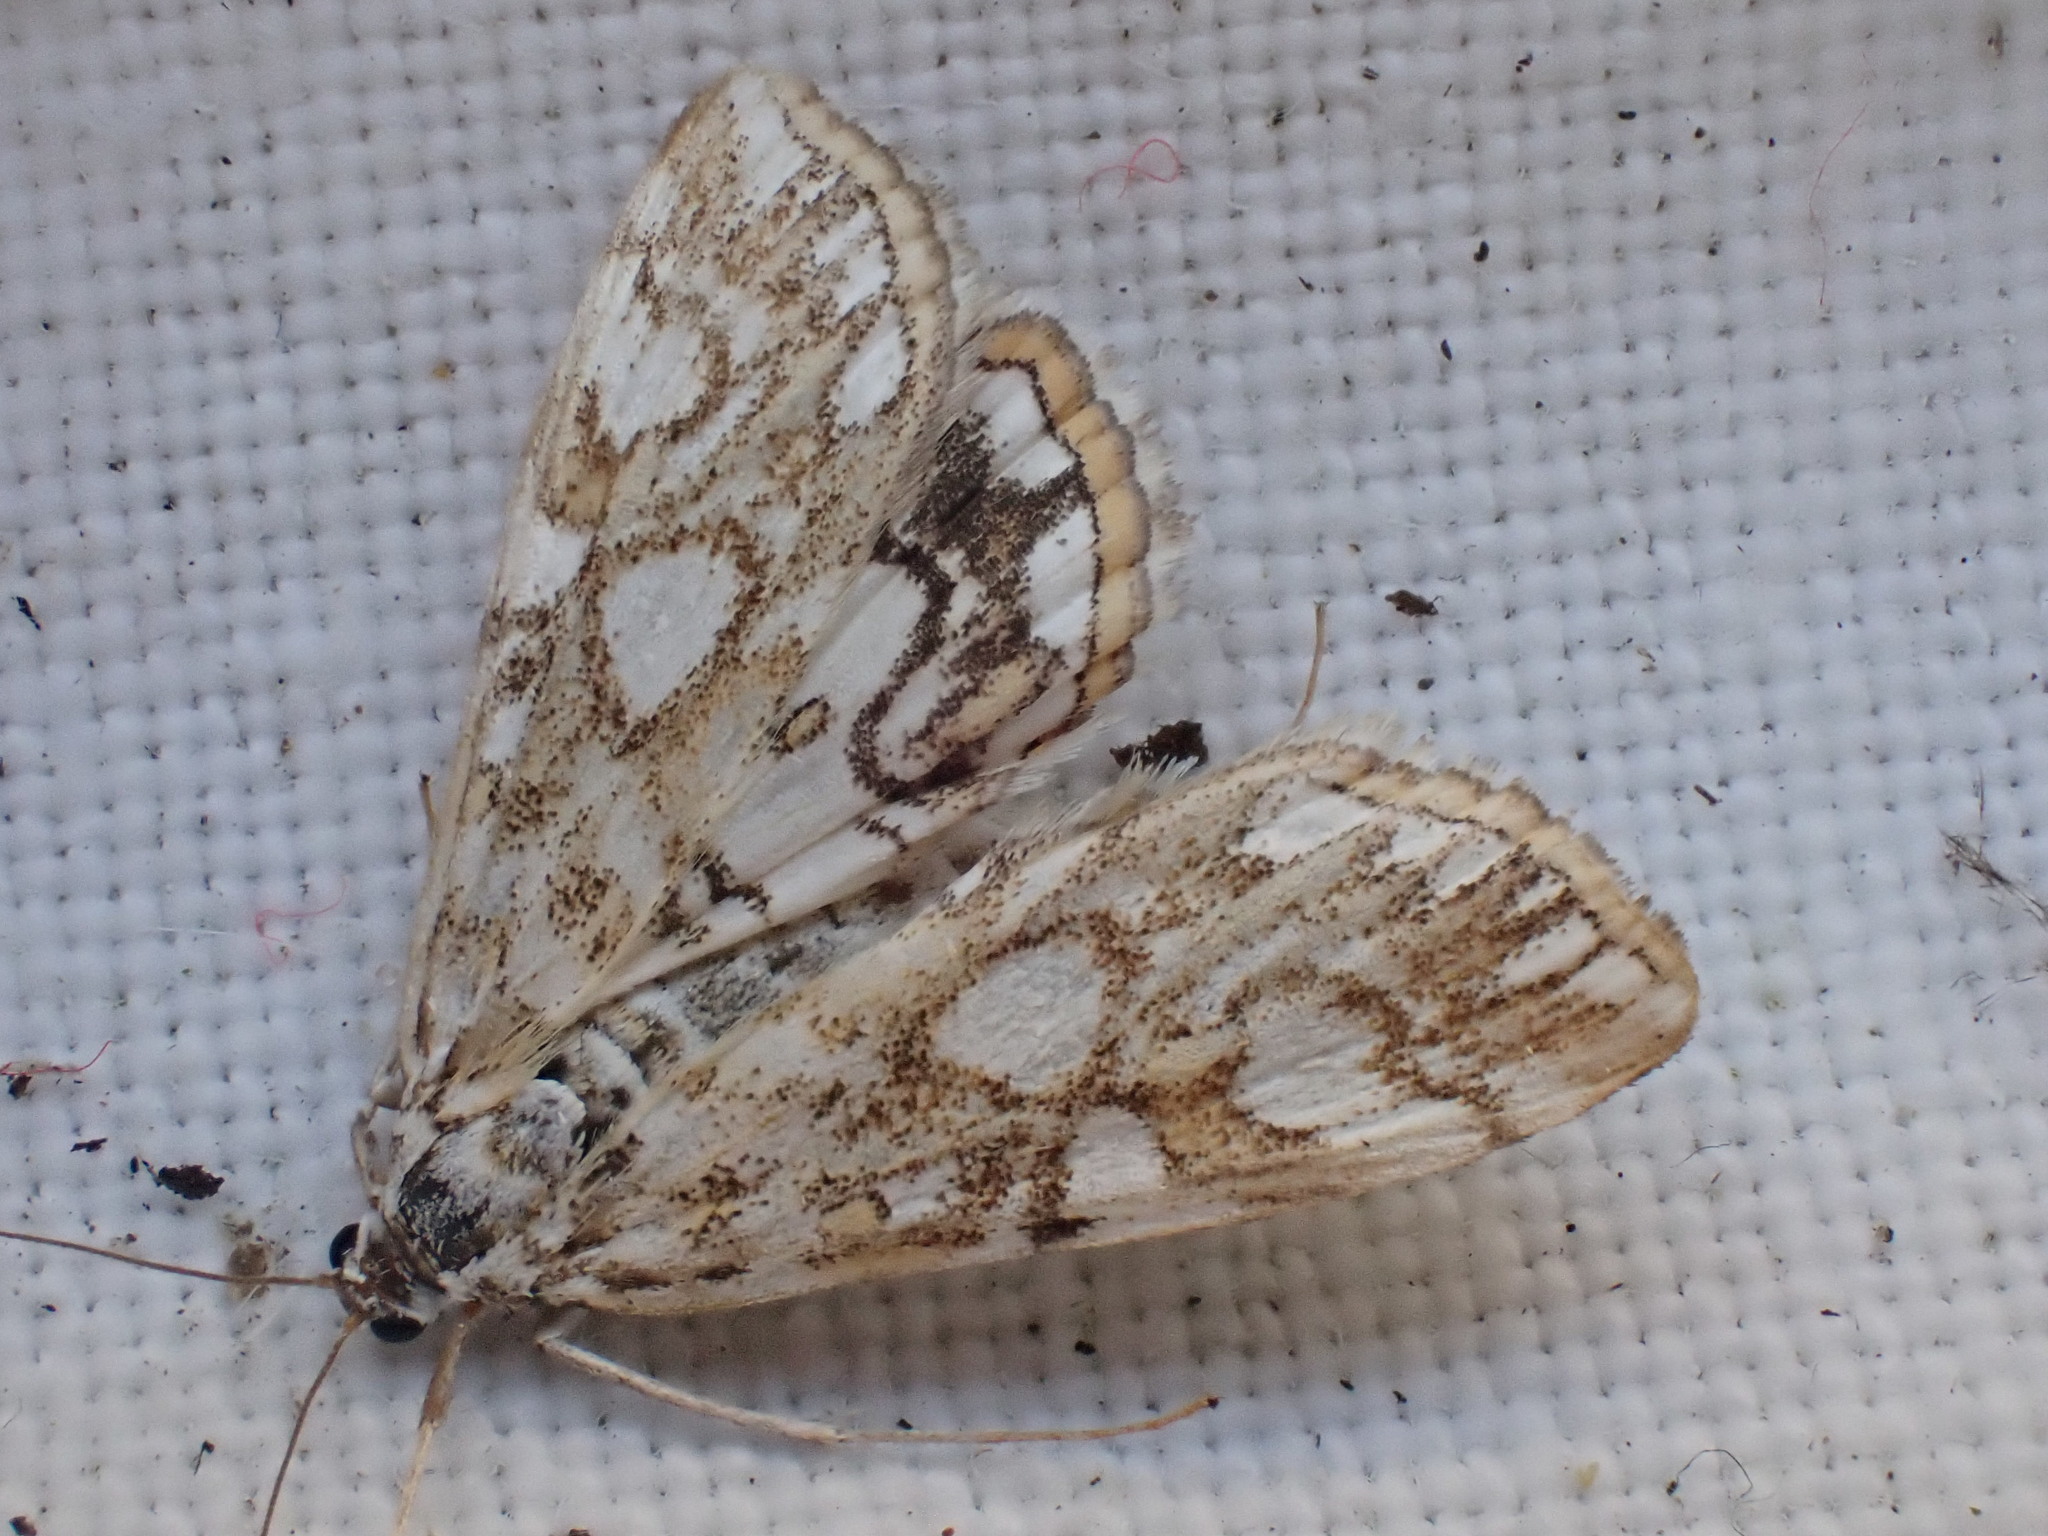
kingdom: Animalia
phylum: Arthropoda
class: Insecta
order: Lepidoptera
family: Crambidae
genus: Elophila
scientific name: Elophila nymphaeata
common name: Brown china-mark
